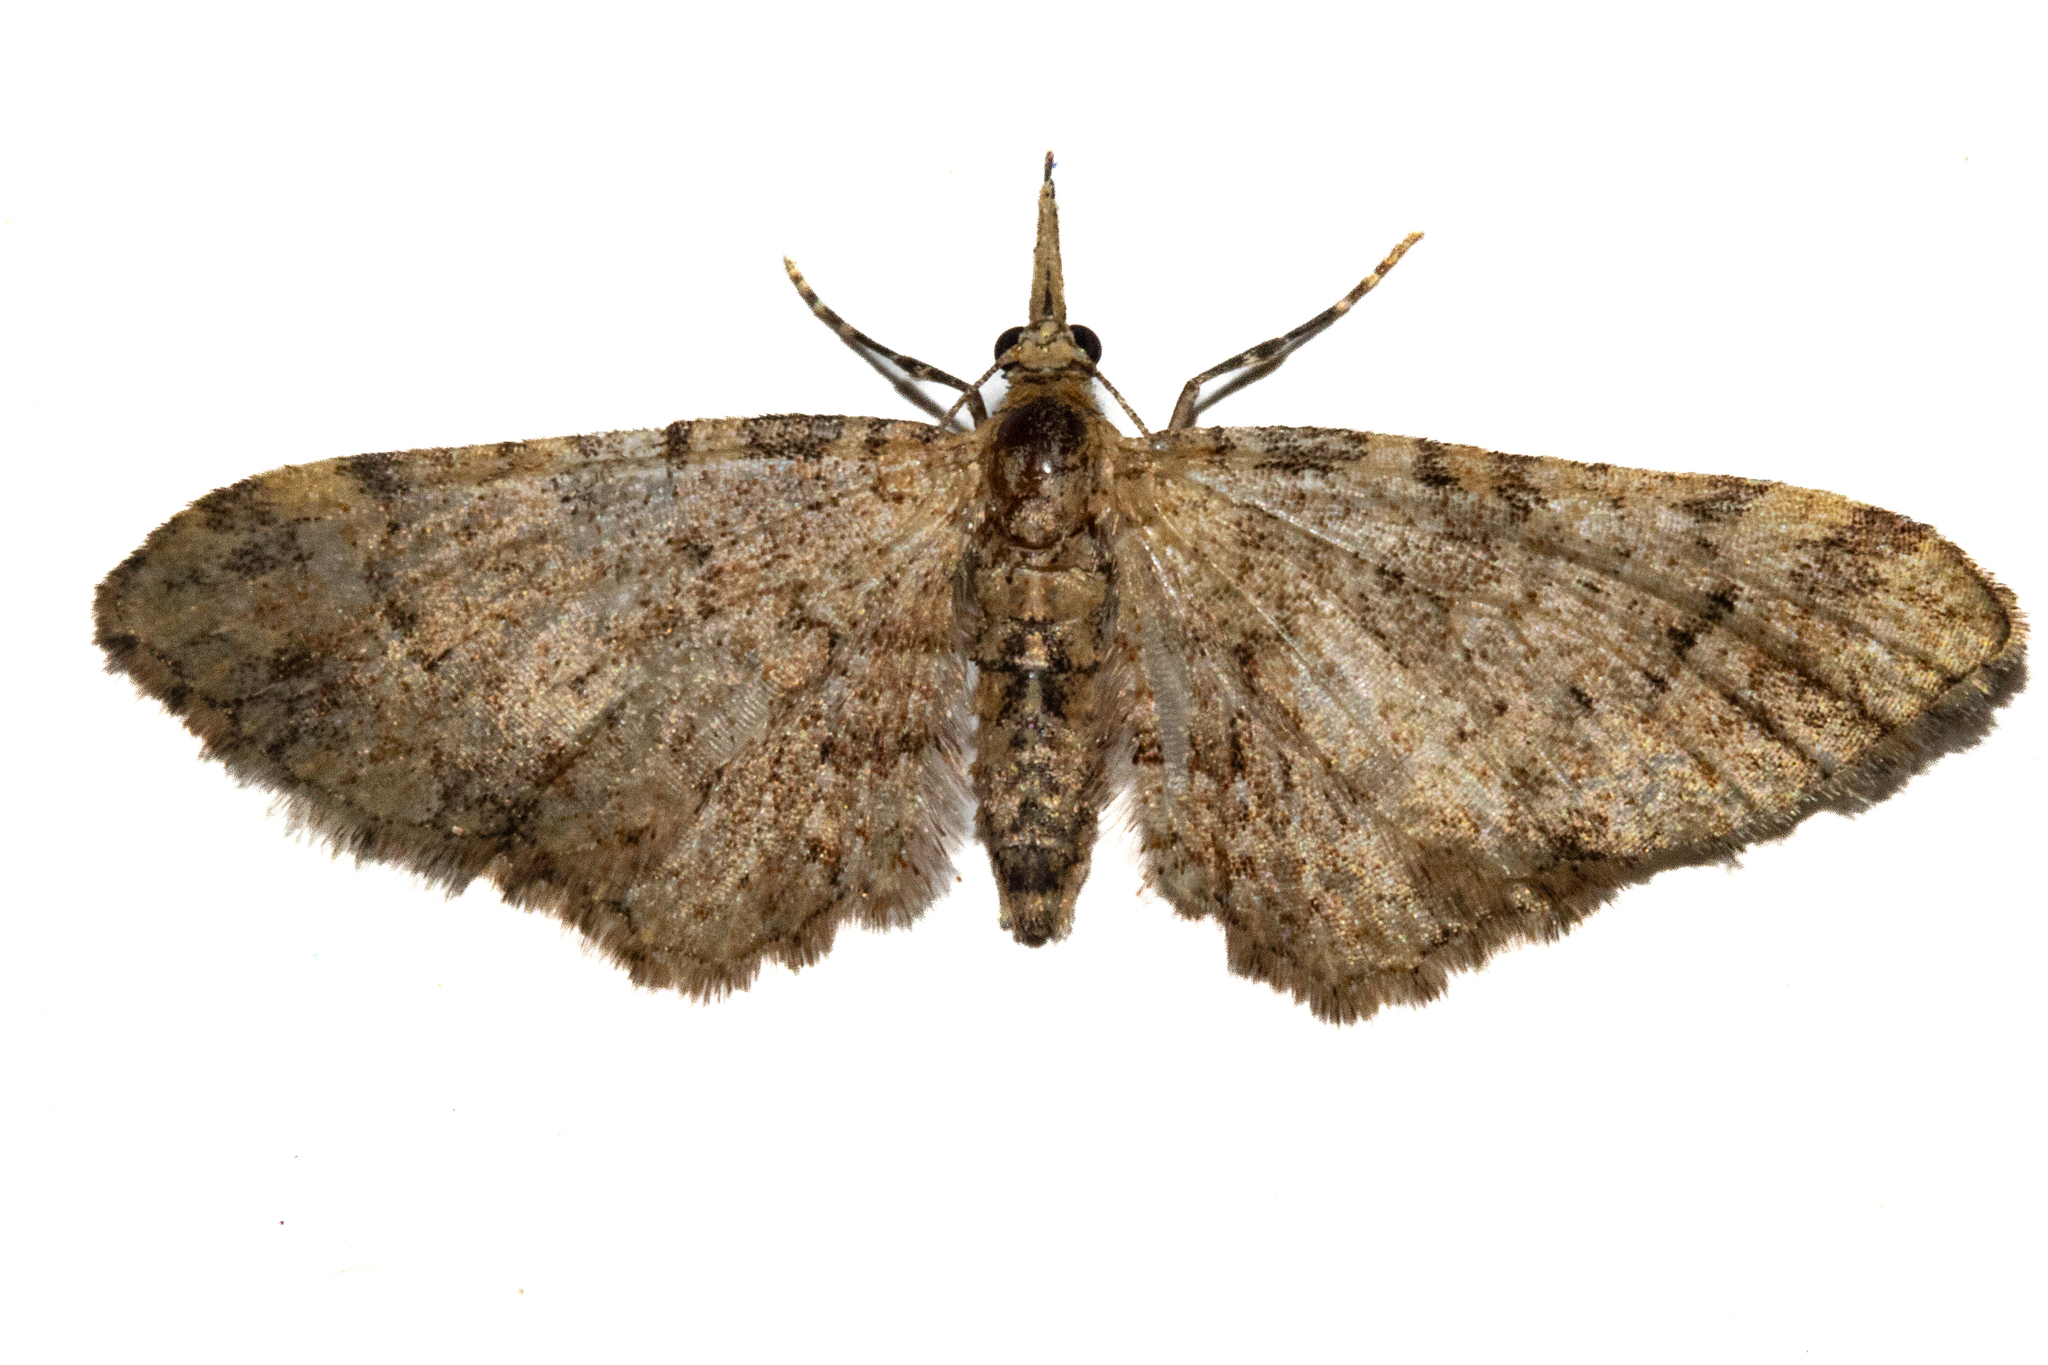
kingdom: Animalia
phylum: Arthropoda
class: Insecta
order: Lepidoptera
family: Geometridae
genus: Pasiphila
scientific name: Pasiphila plinthina
